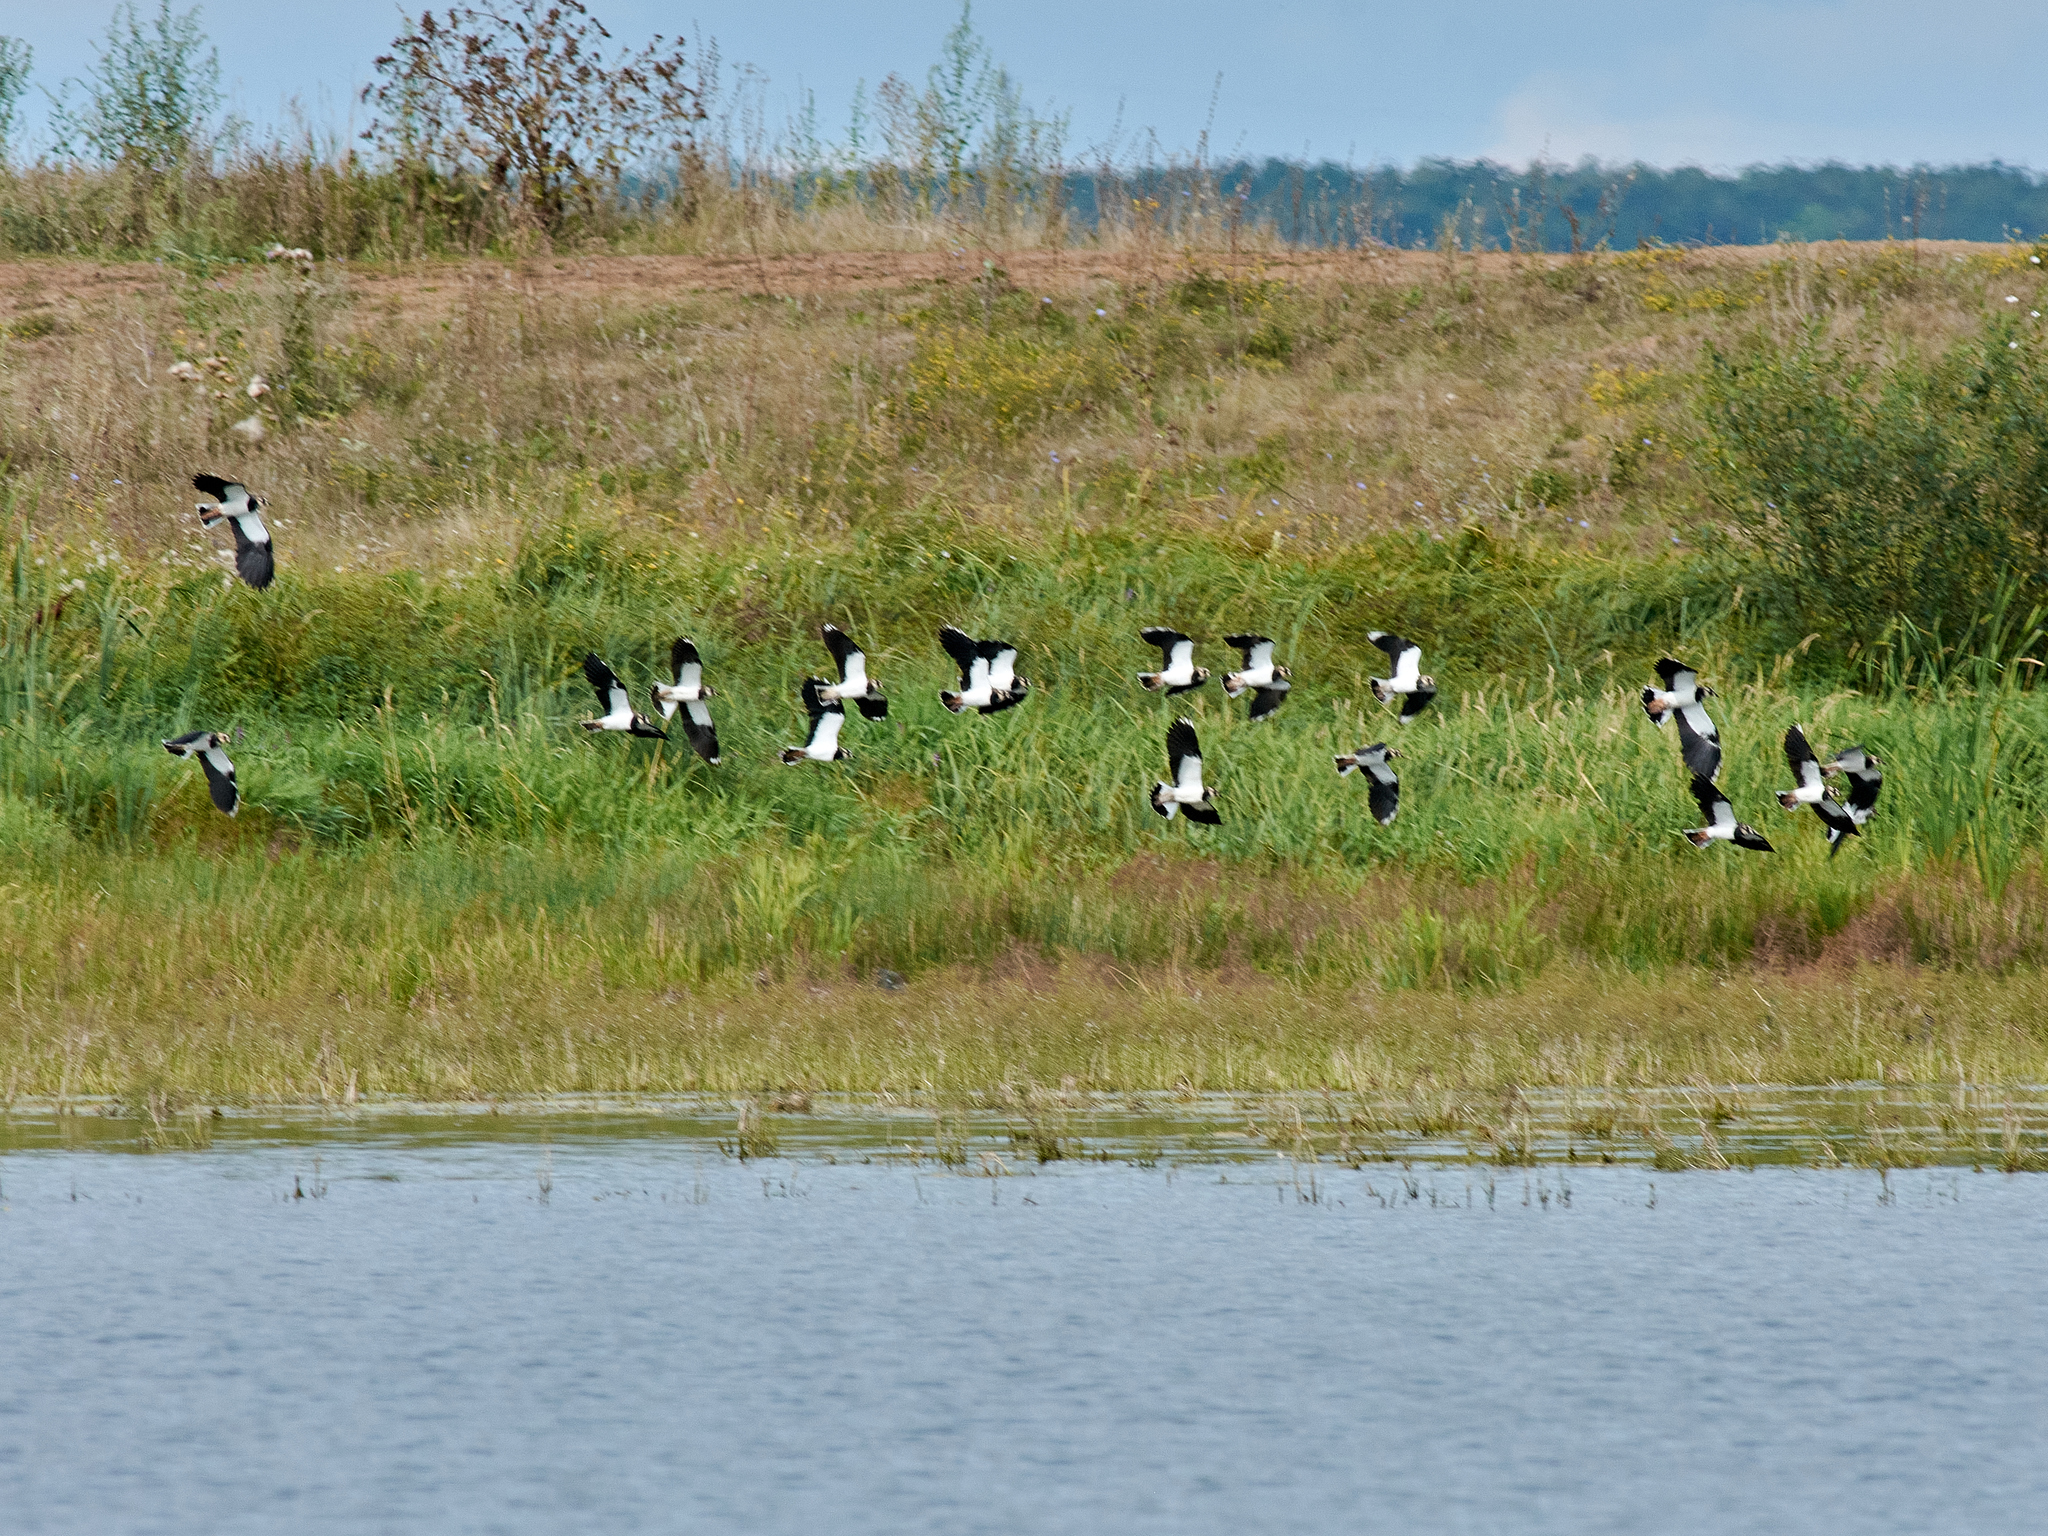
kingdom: Animalia
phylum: Chordata
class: Aves
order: Charadriiformes
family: Charadriidae
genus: Vanellus
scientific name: Vanellus vanellus
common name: Northern lapwing
